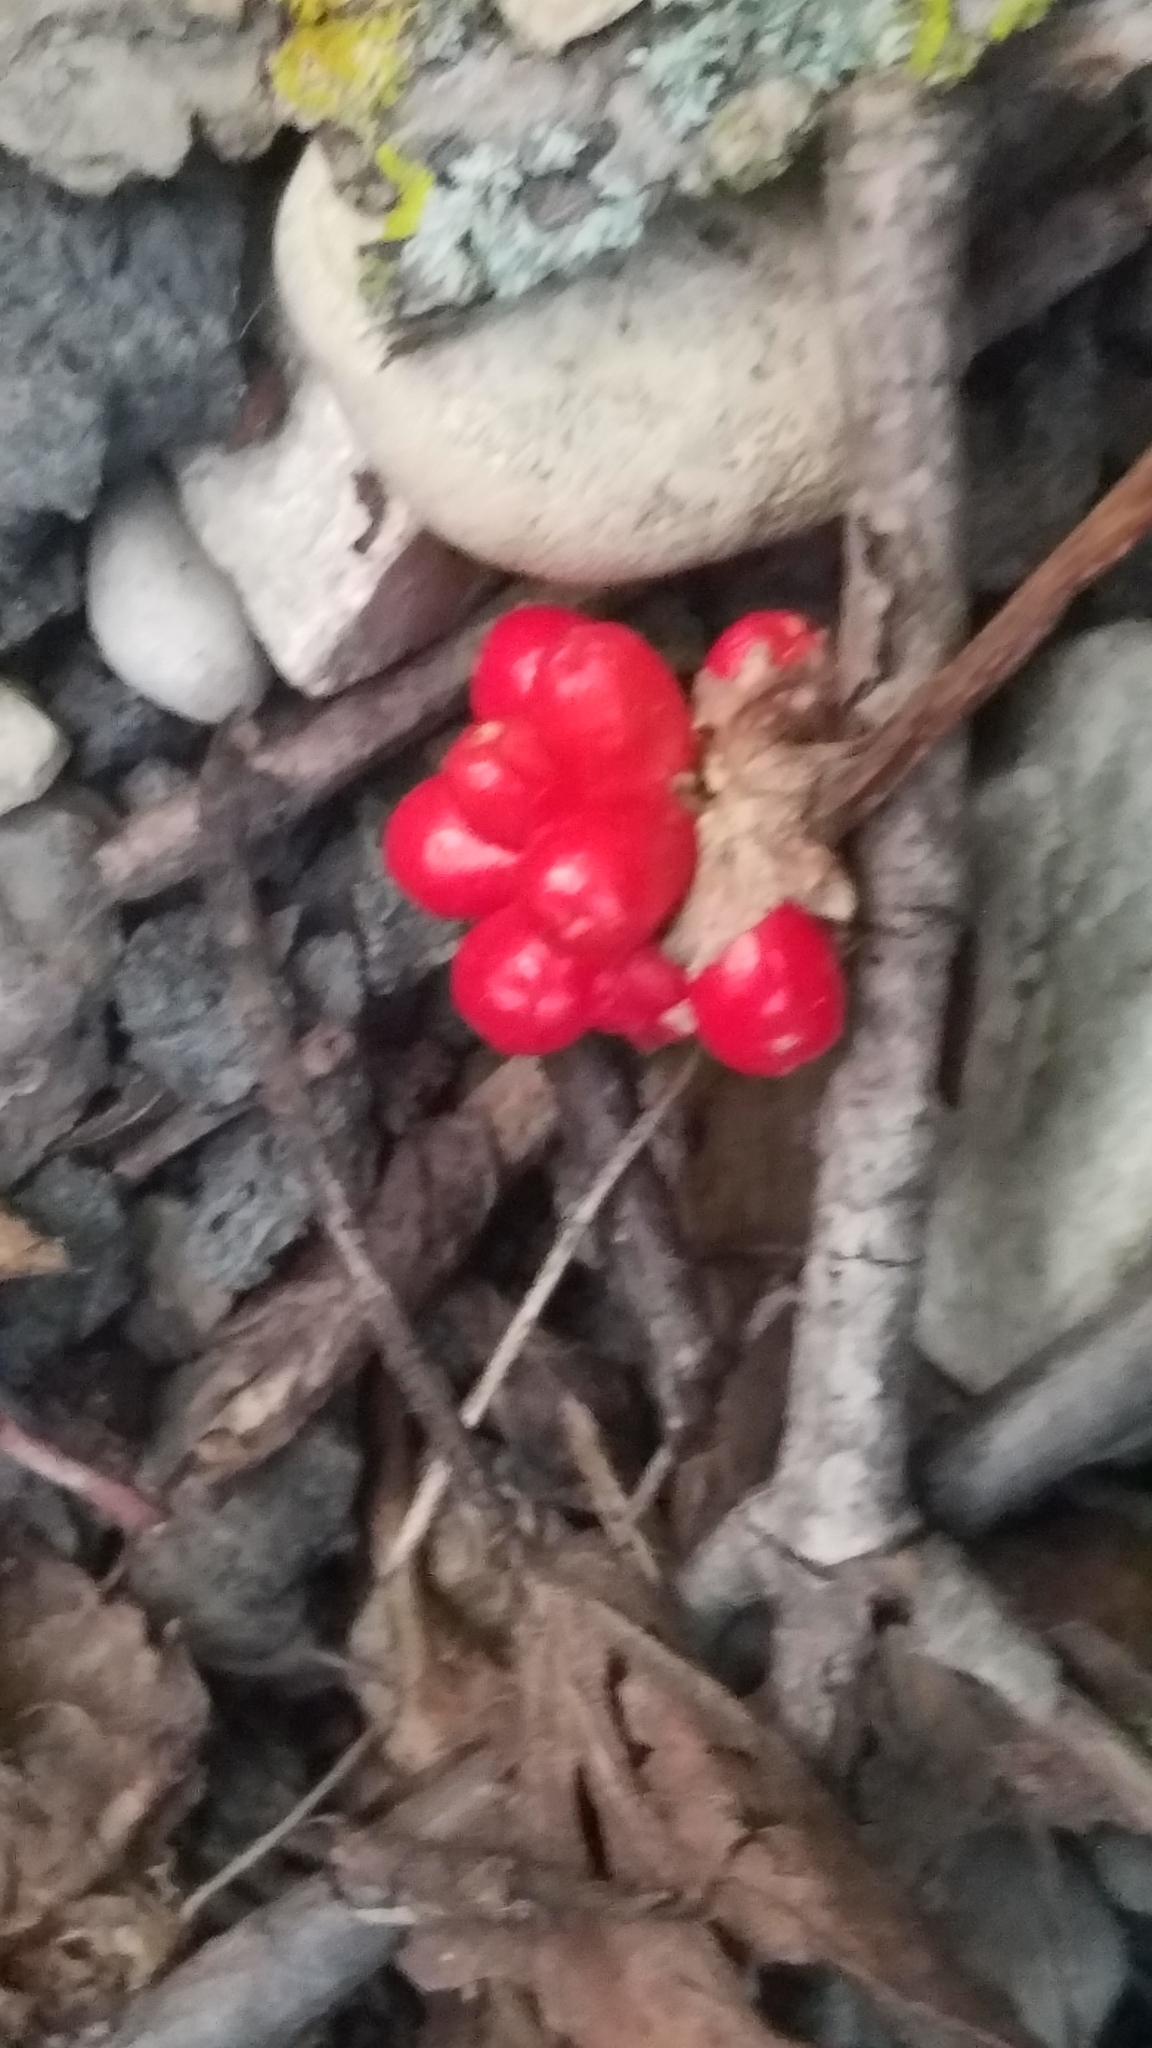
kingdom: Plantae
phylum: Tracheophyta
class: Liliopsida
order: Alismatales
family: Araceae
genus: Arisaema
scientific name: Arisaema triphyllum
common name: Jack-in-the-pulpit
